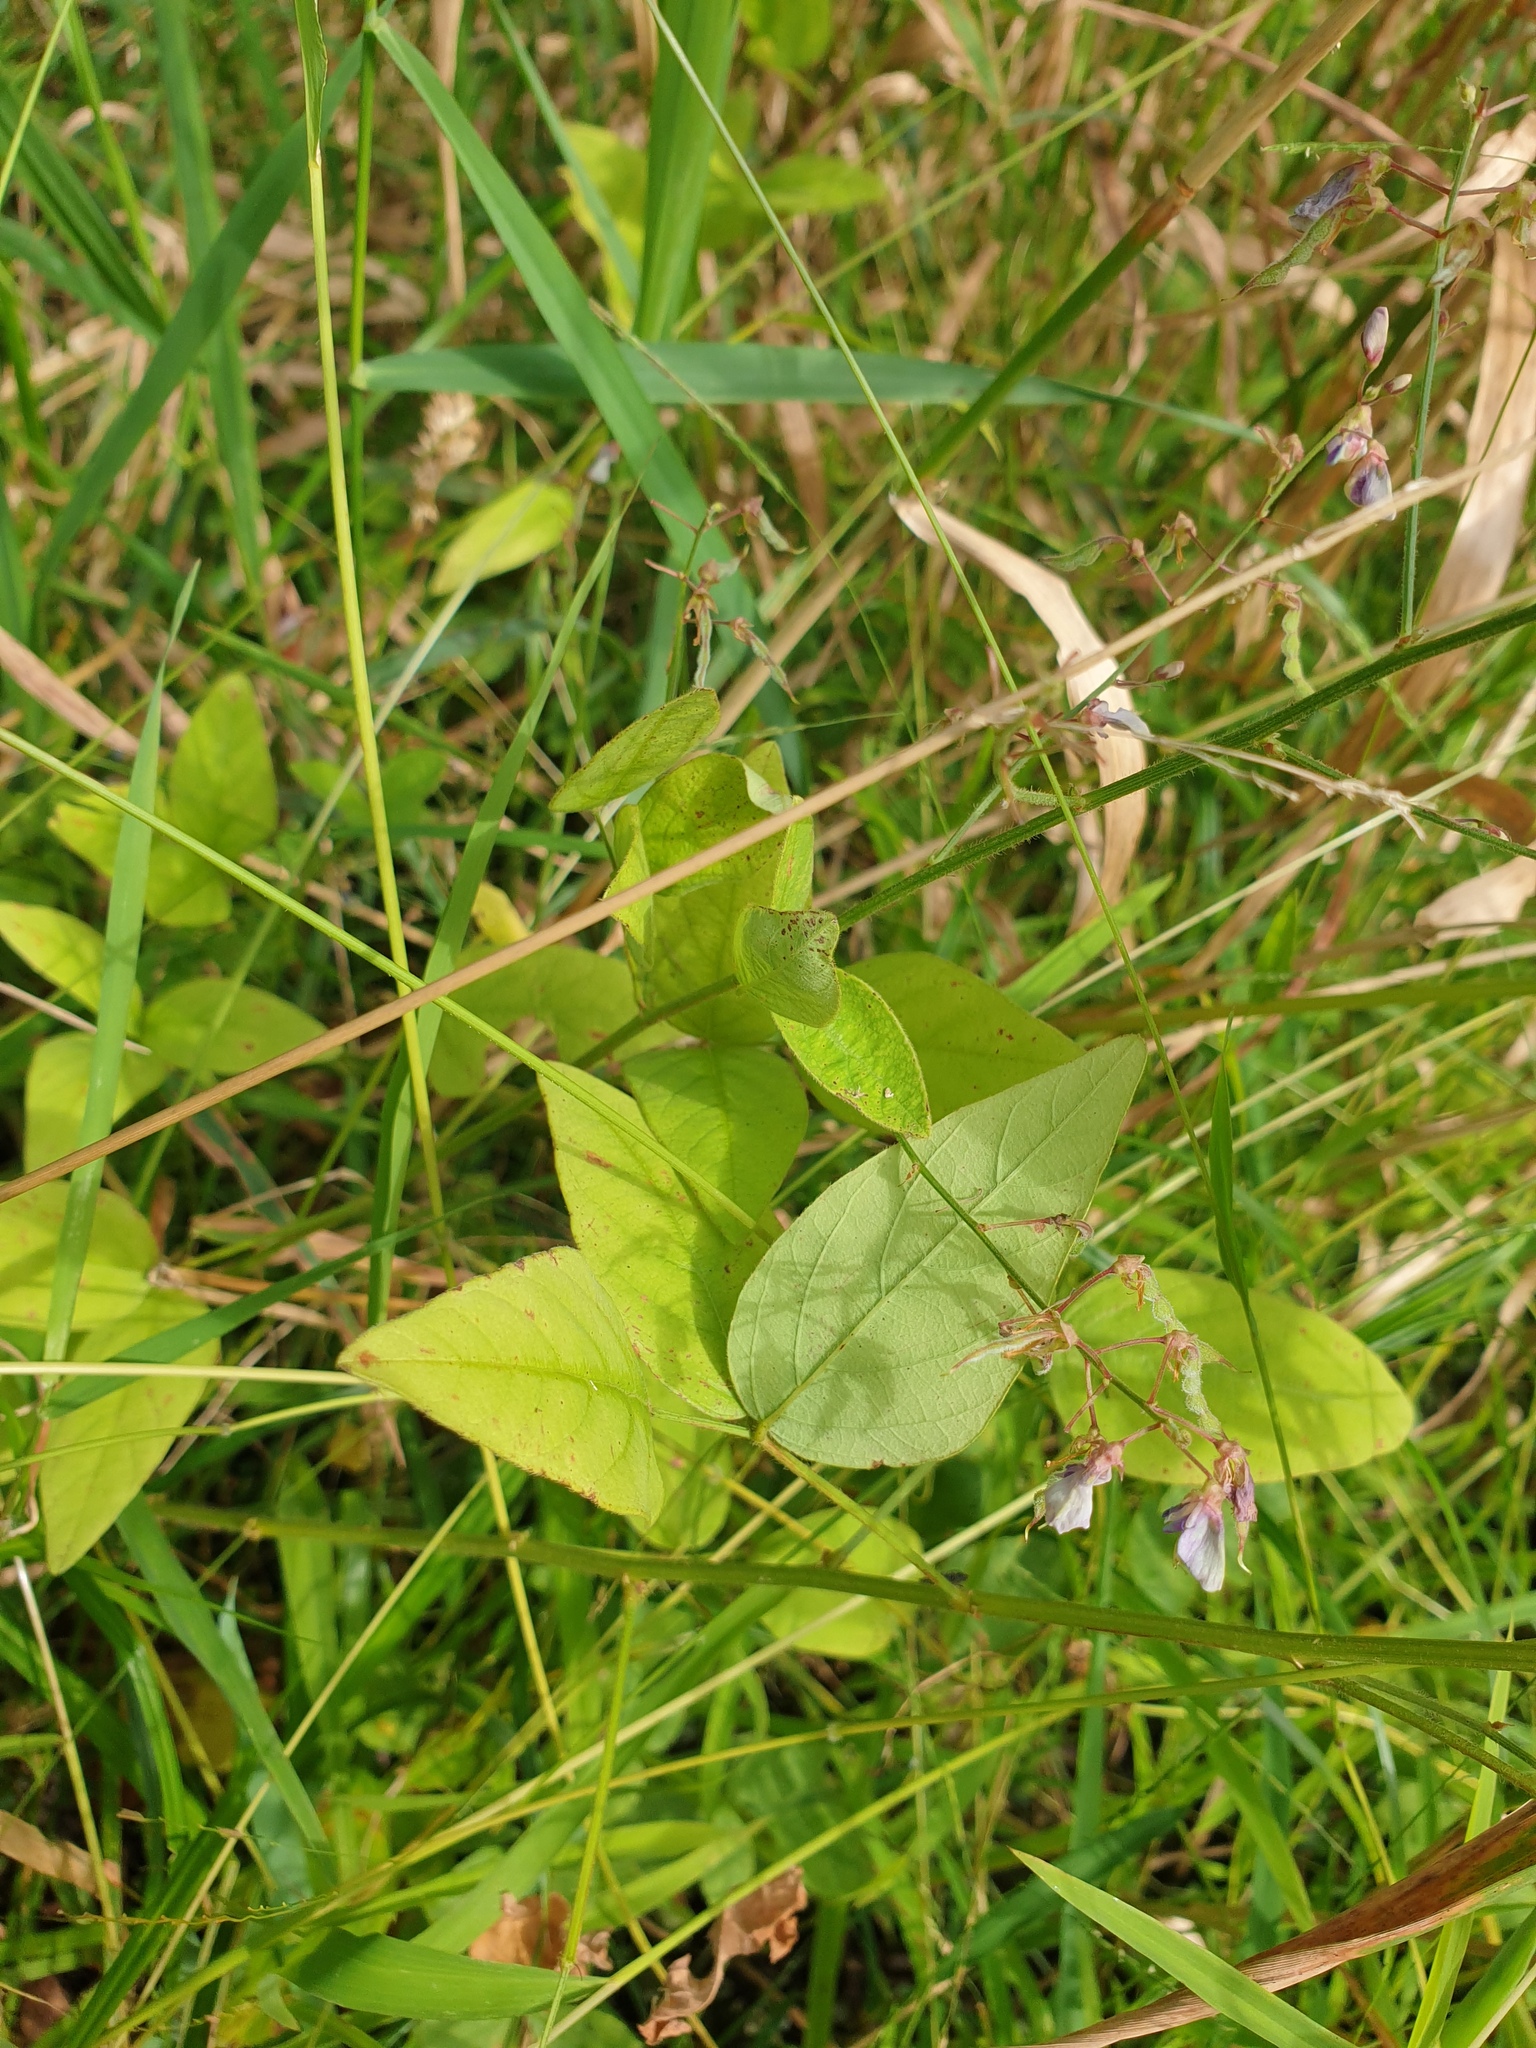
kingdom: Plantae
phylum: Tracheophyta
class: Magnoliopsida
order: Fabales
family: Fabaceae
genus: Desmodium
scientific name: Desmodium perplexum
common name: Perplexed tick trefoil
